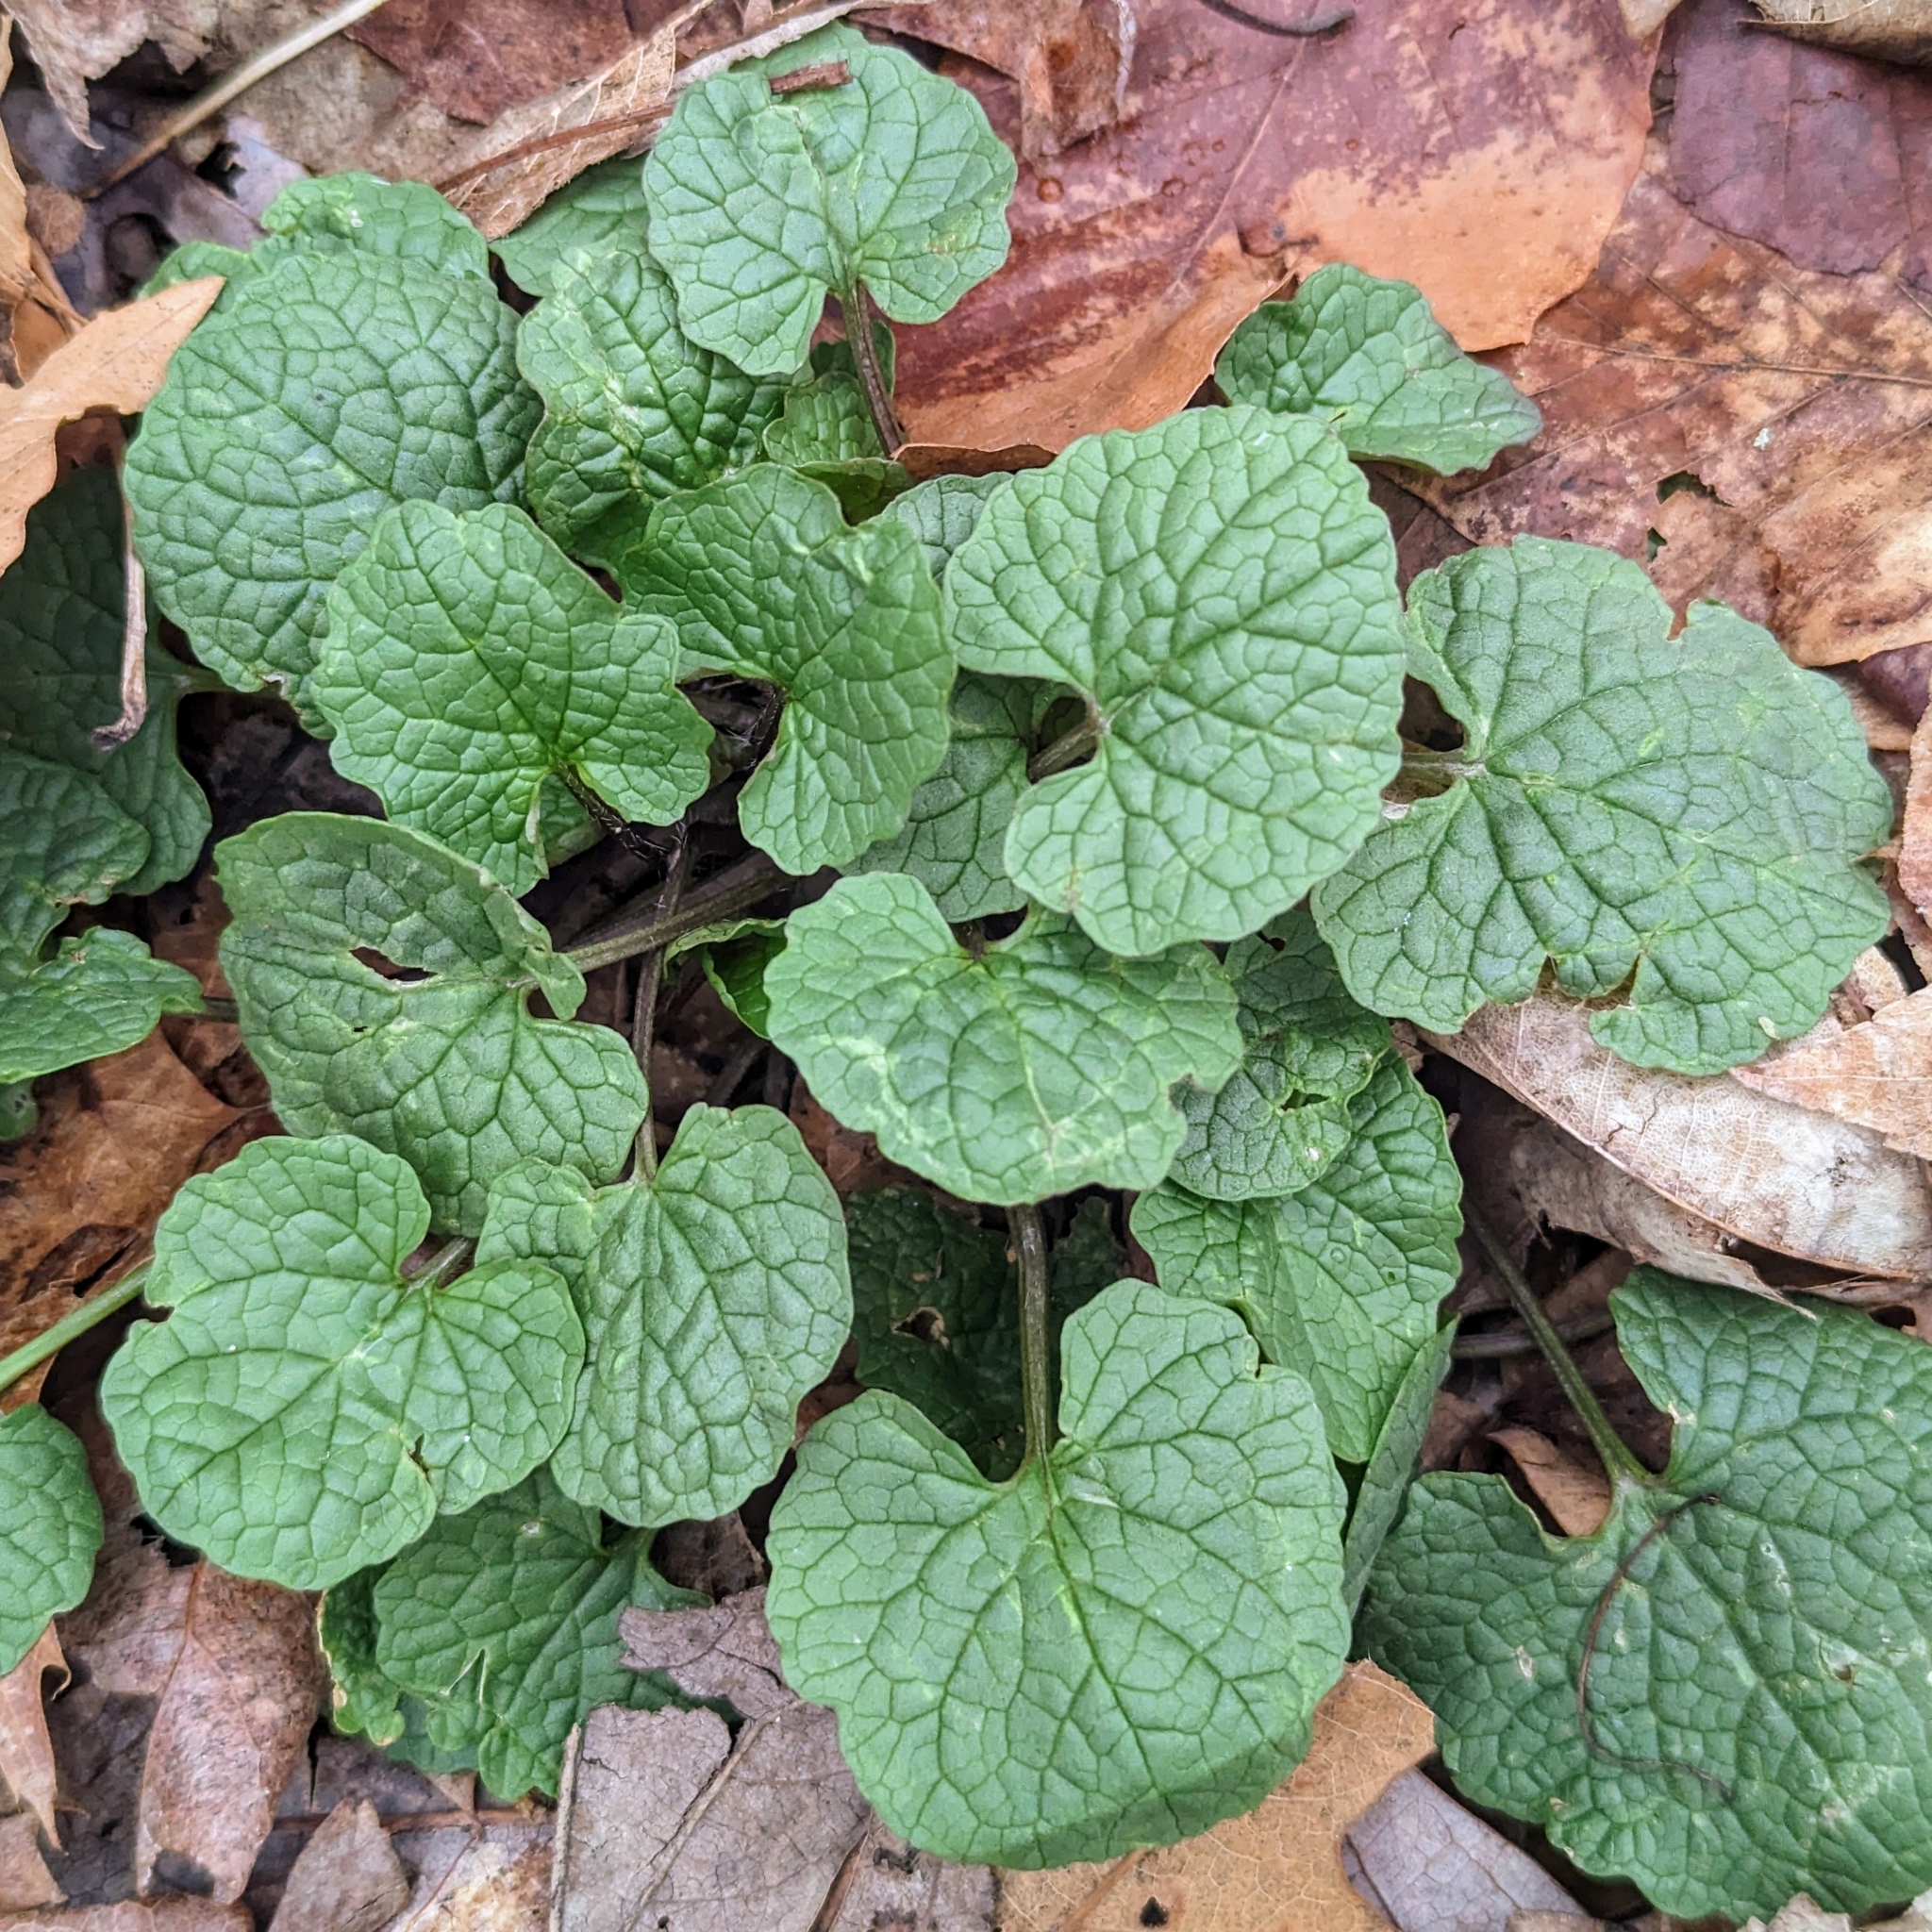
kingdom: Plantae
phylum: Tracheophyta
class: Magnoliopsida
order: Brassicales
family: Brassicaceae
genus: Alliaria
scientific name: Alliaria petiolata
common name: Garlic mustard
